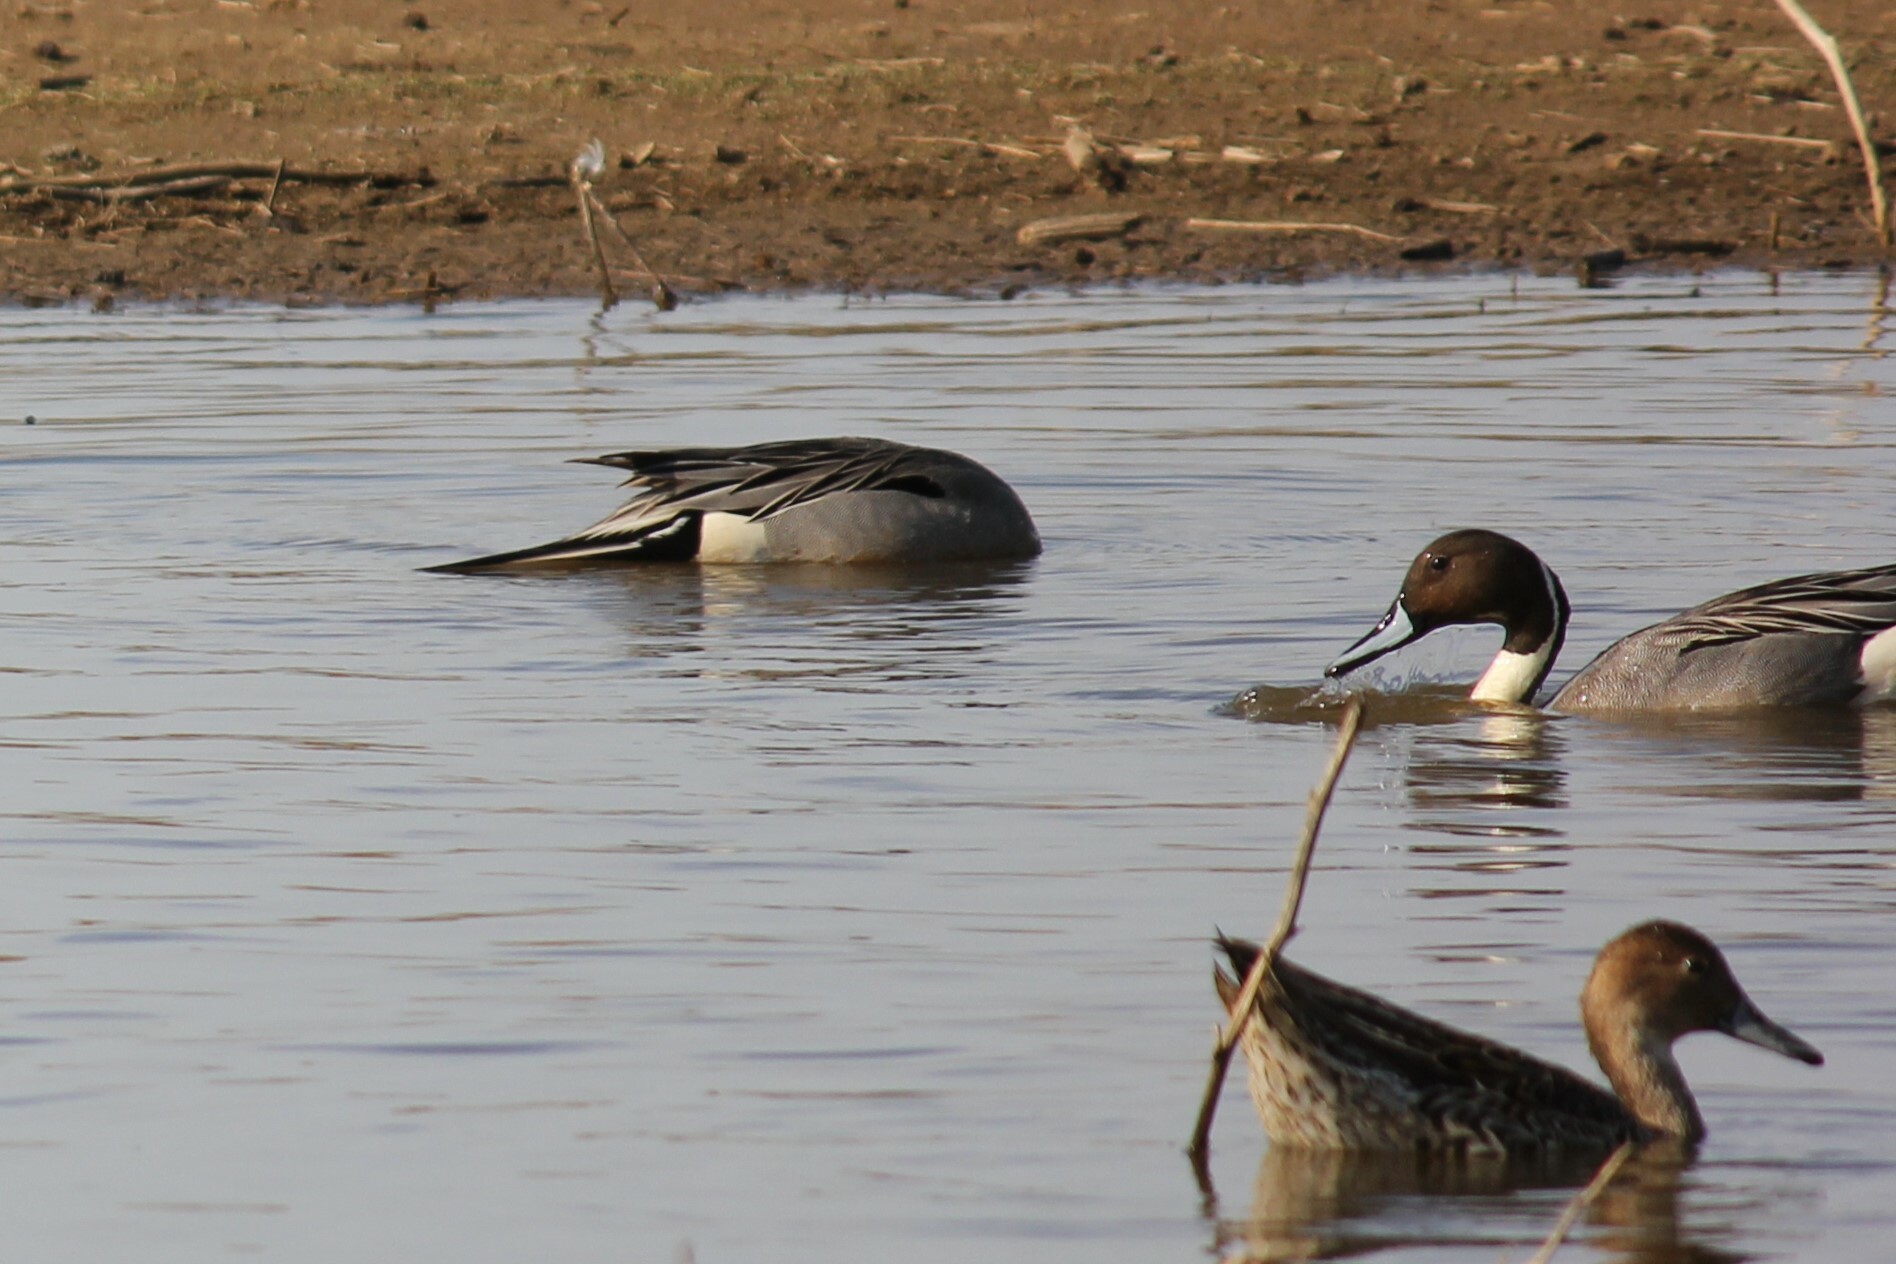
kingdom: Animalia
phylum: Chordata
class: Aves
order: Anseriformes
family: Anatidae
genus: Anas
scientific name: Anas acuta
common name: Northern pintail
